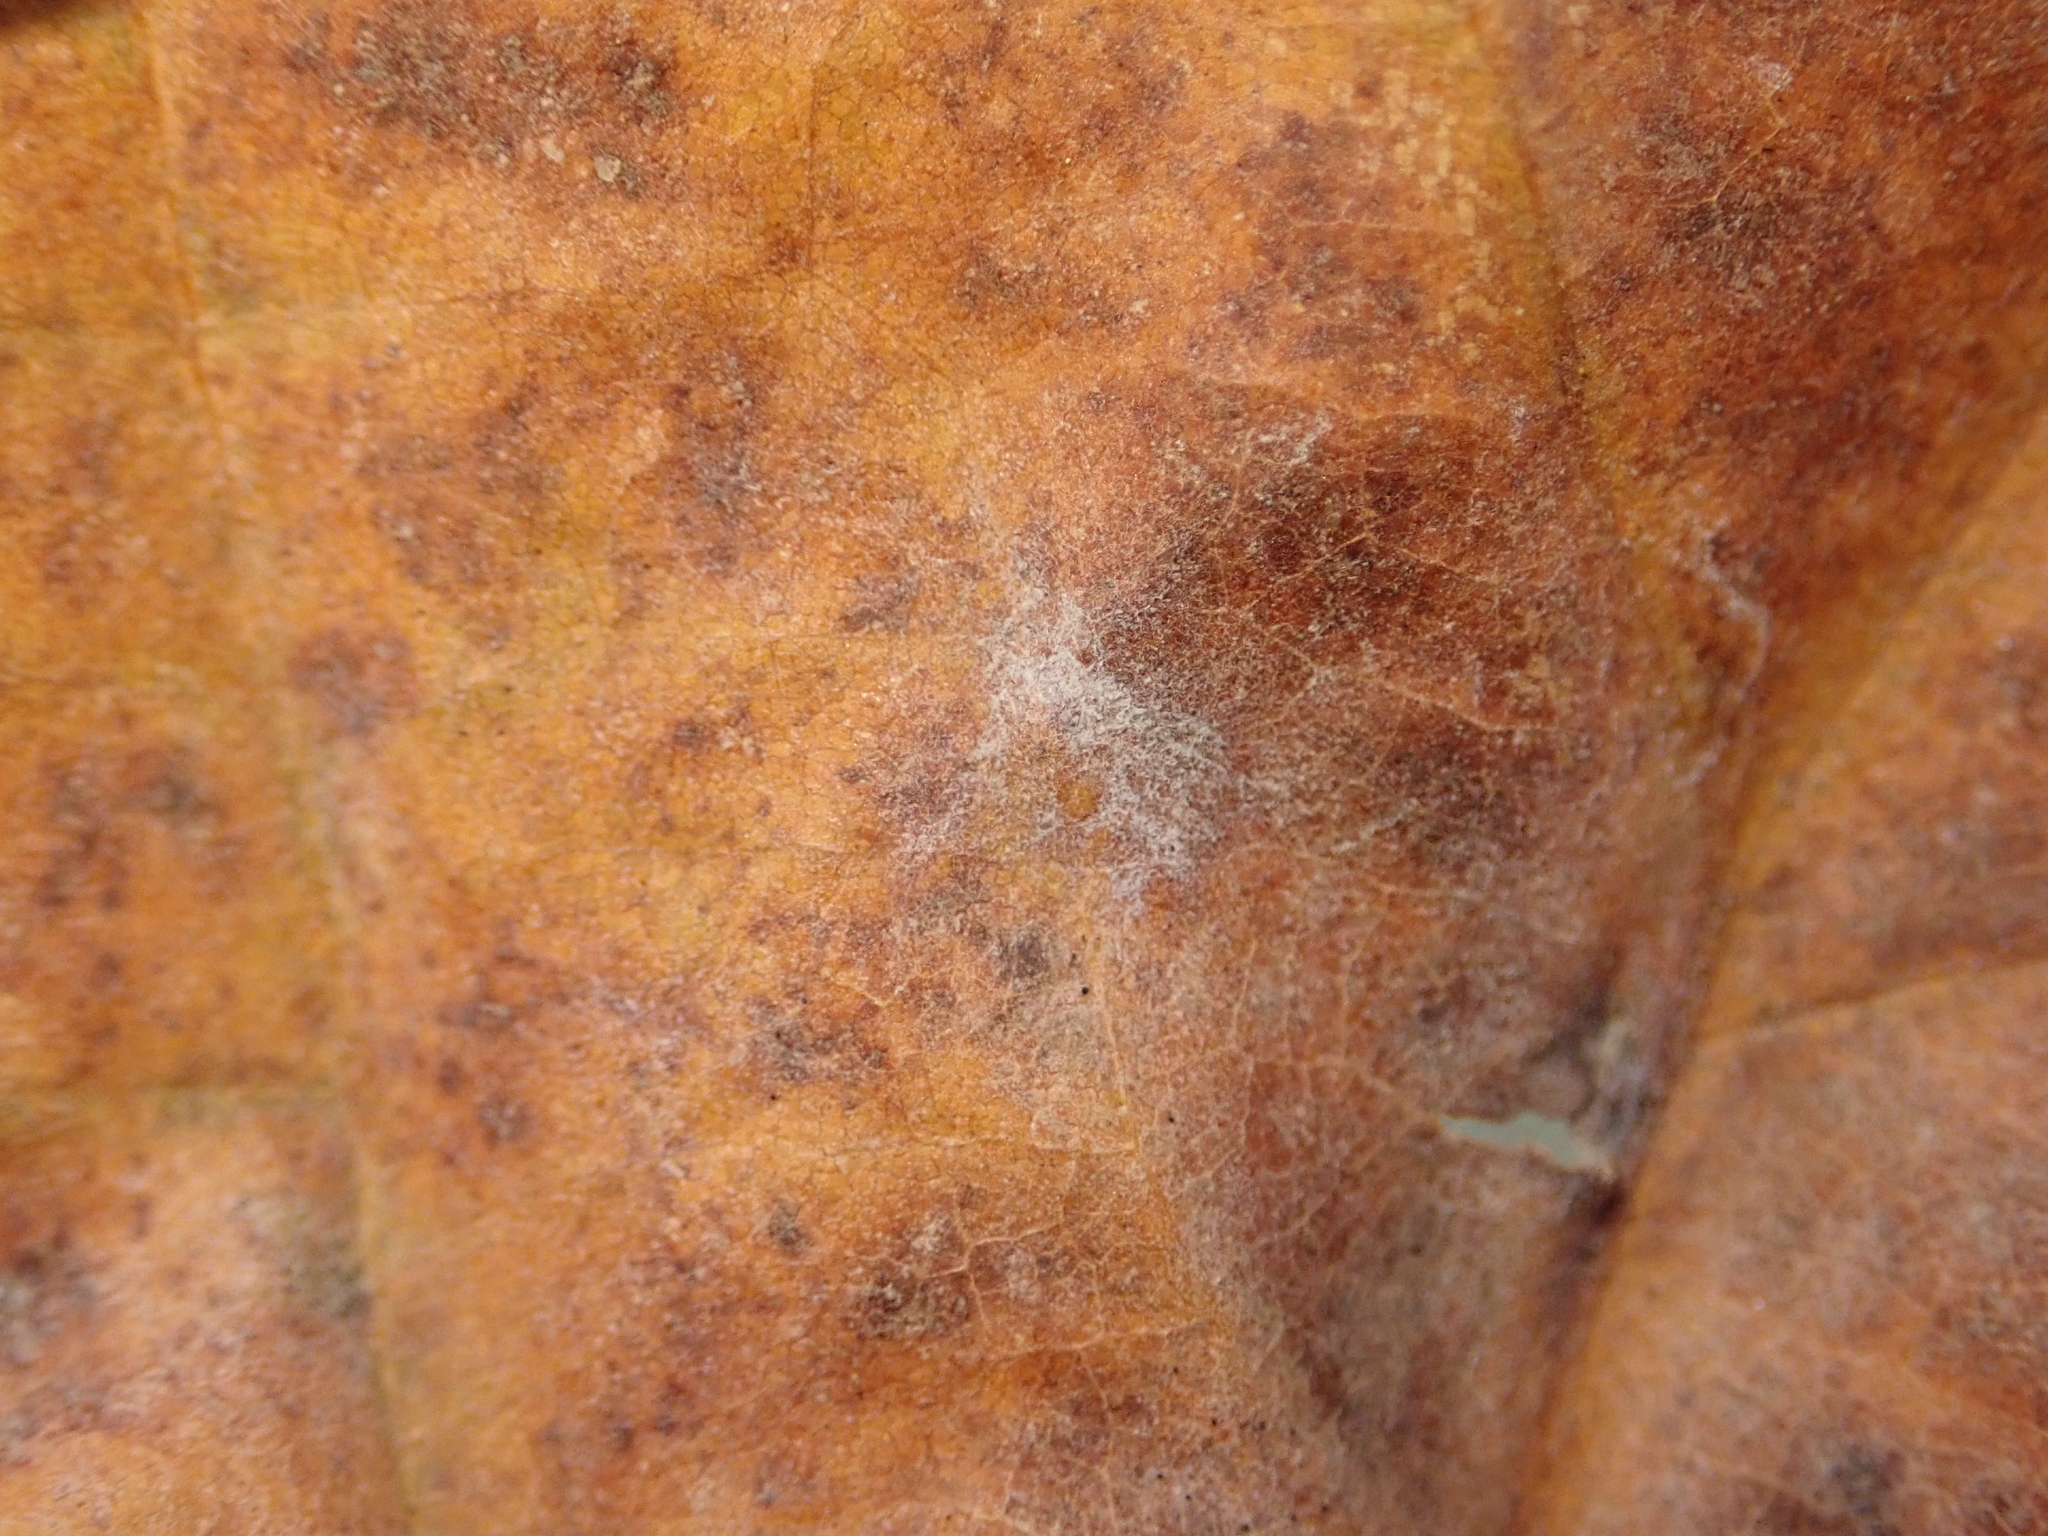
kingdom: Fungi
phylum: Ascomycota
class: Leotiomycetes
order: Helotiales
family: Erysiphaceae
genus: Erysiphe
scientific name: Erysiphe platani
